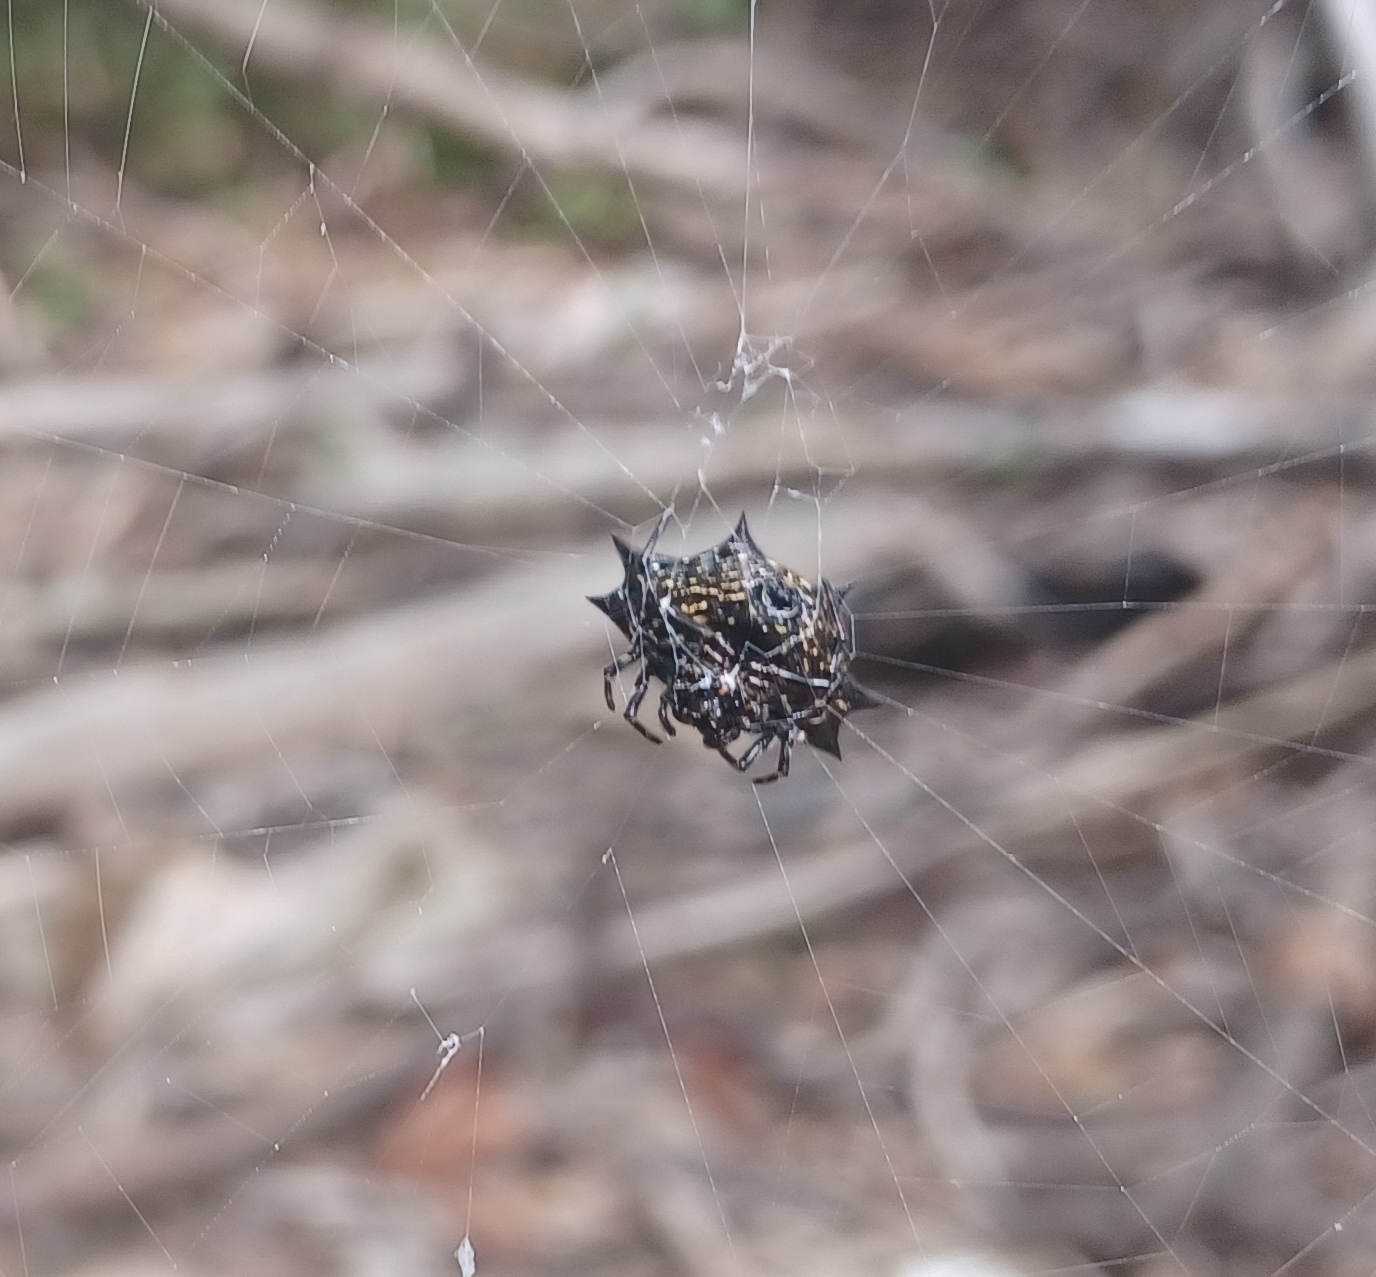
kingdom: Animalia
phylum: Arthropoda
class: Arachnida
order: Araneae
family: Araneidae
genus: Gasteracantha
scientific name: Gasteracantha cancriformis
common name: Orb weavers
